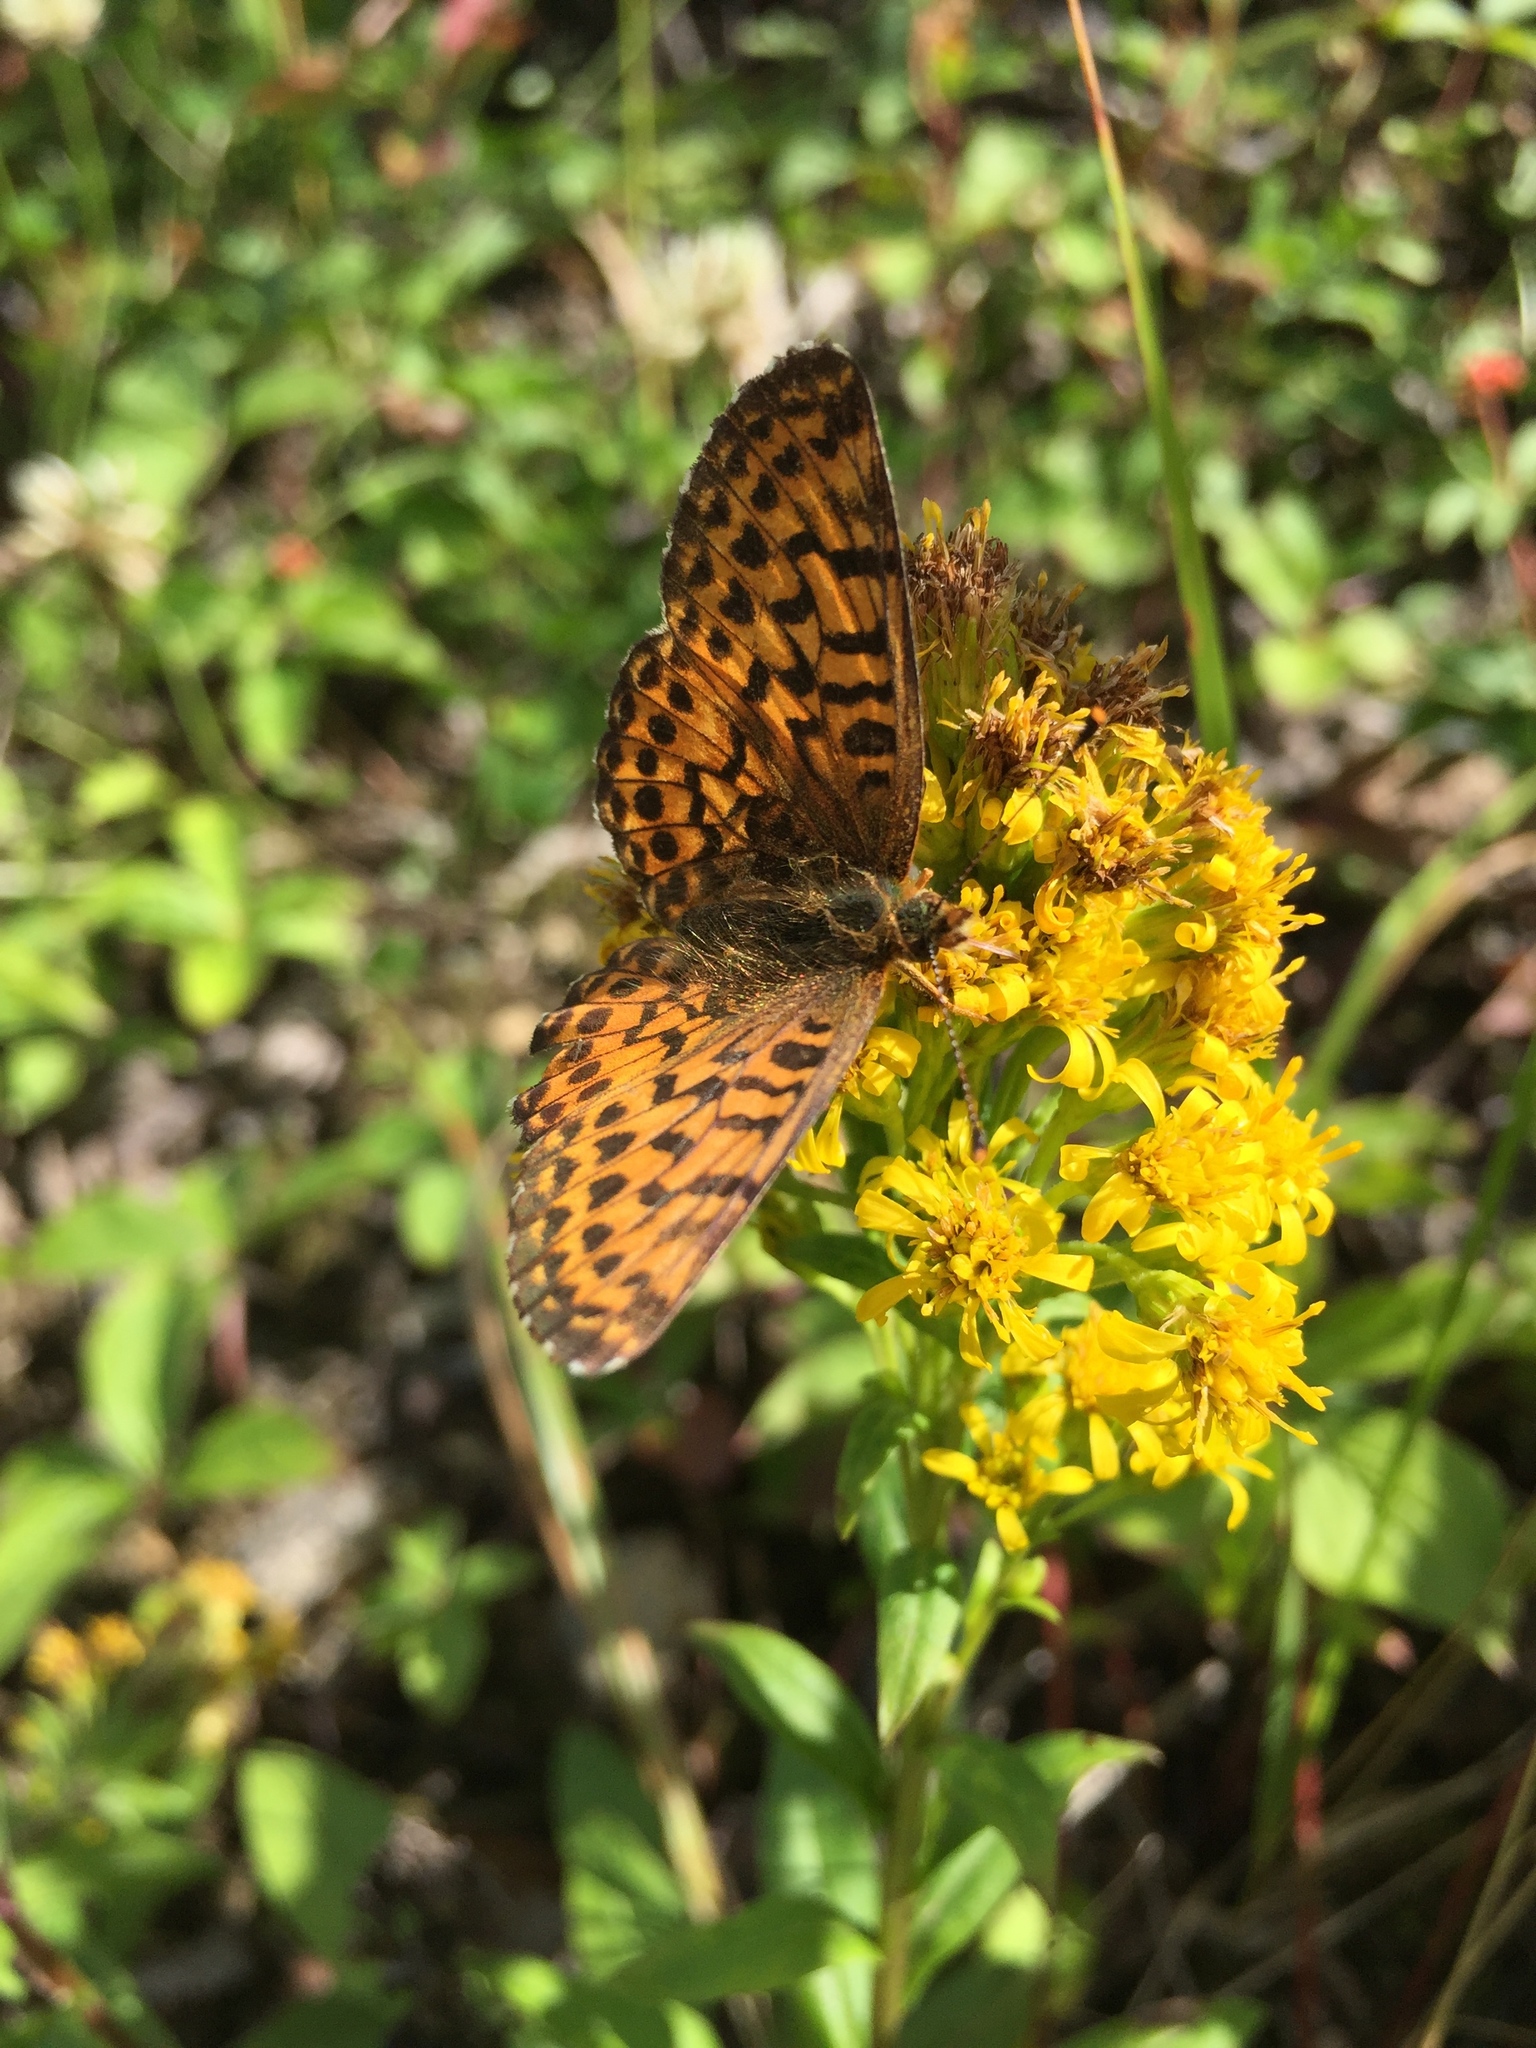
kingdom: Animalia
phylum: Arthropoda
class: Insecta
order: Lepidoptera
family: Nymphalidae
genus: Boloria
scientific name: Boloria chariclea
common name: Arctic fritillary
